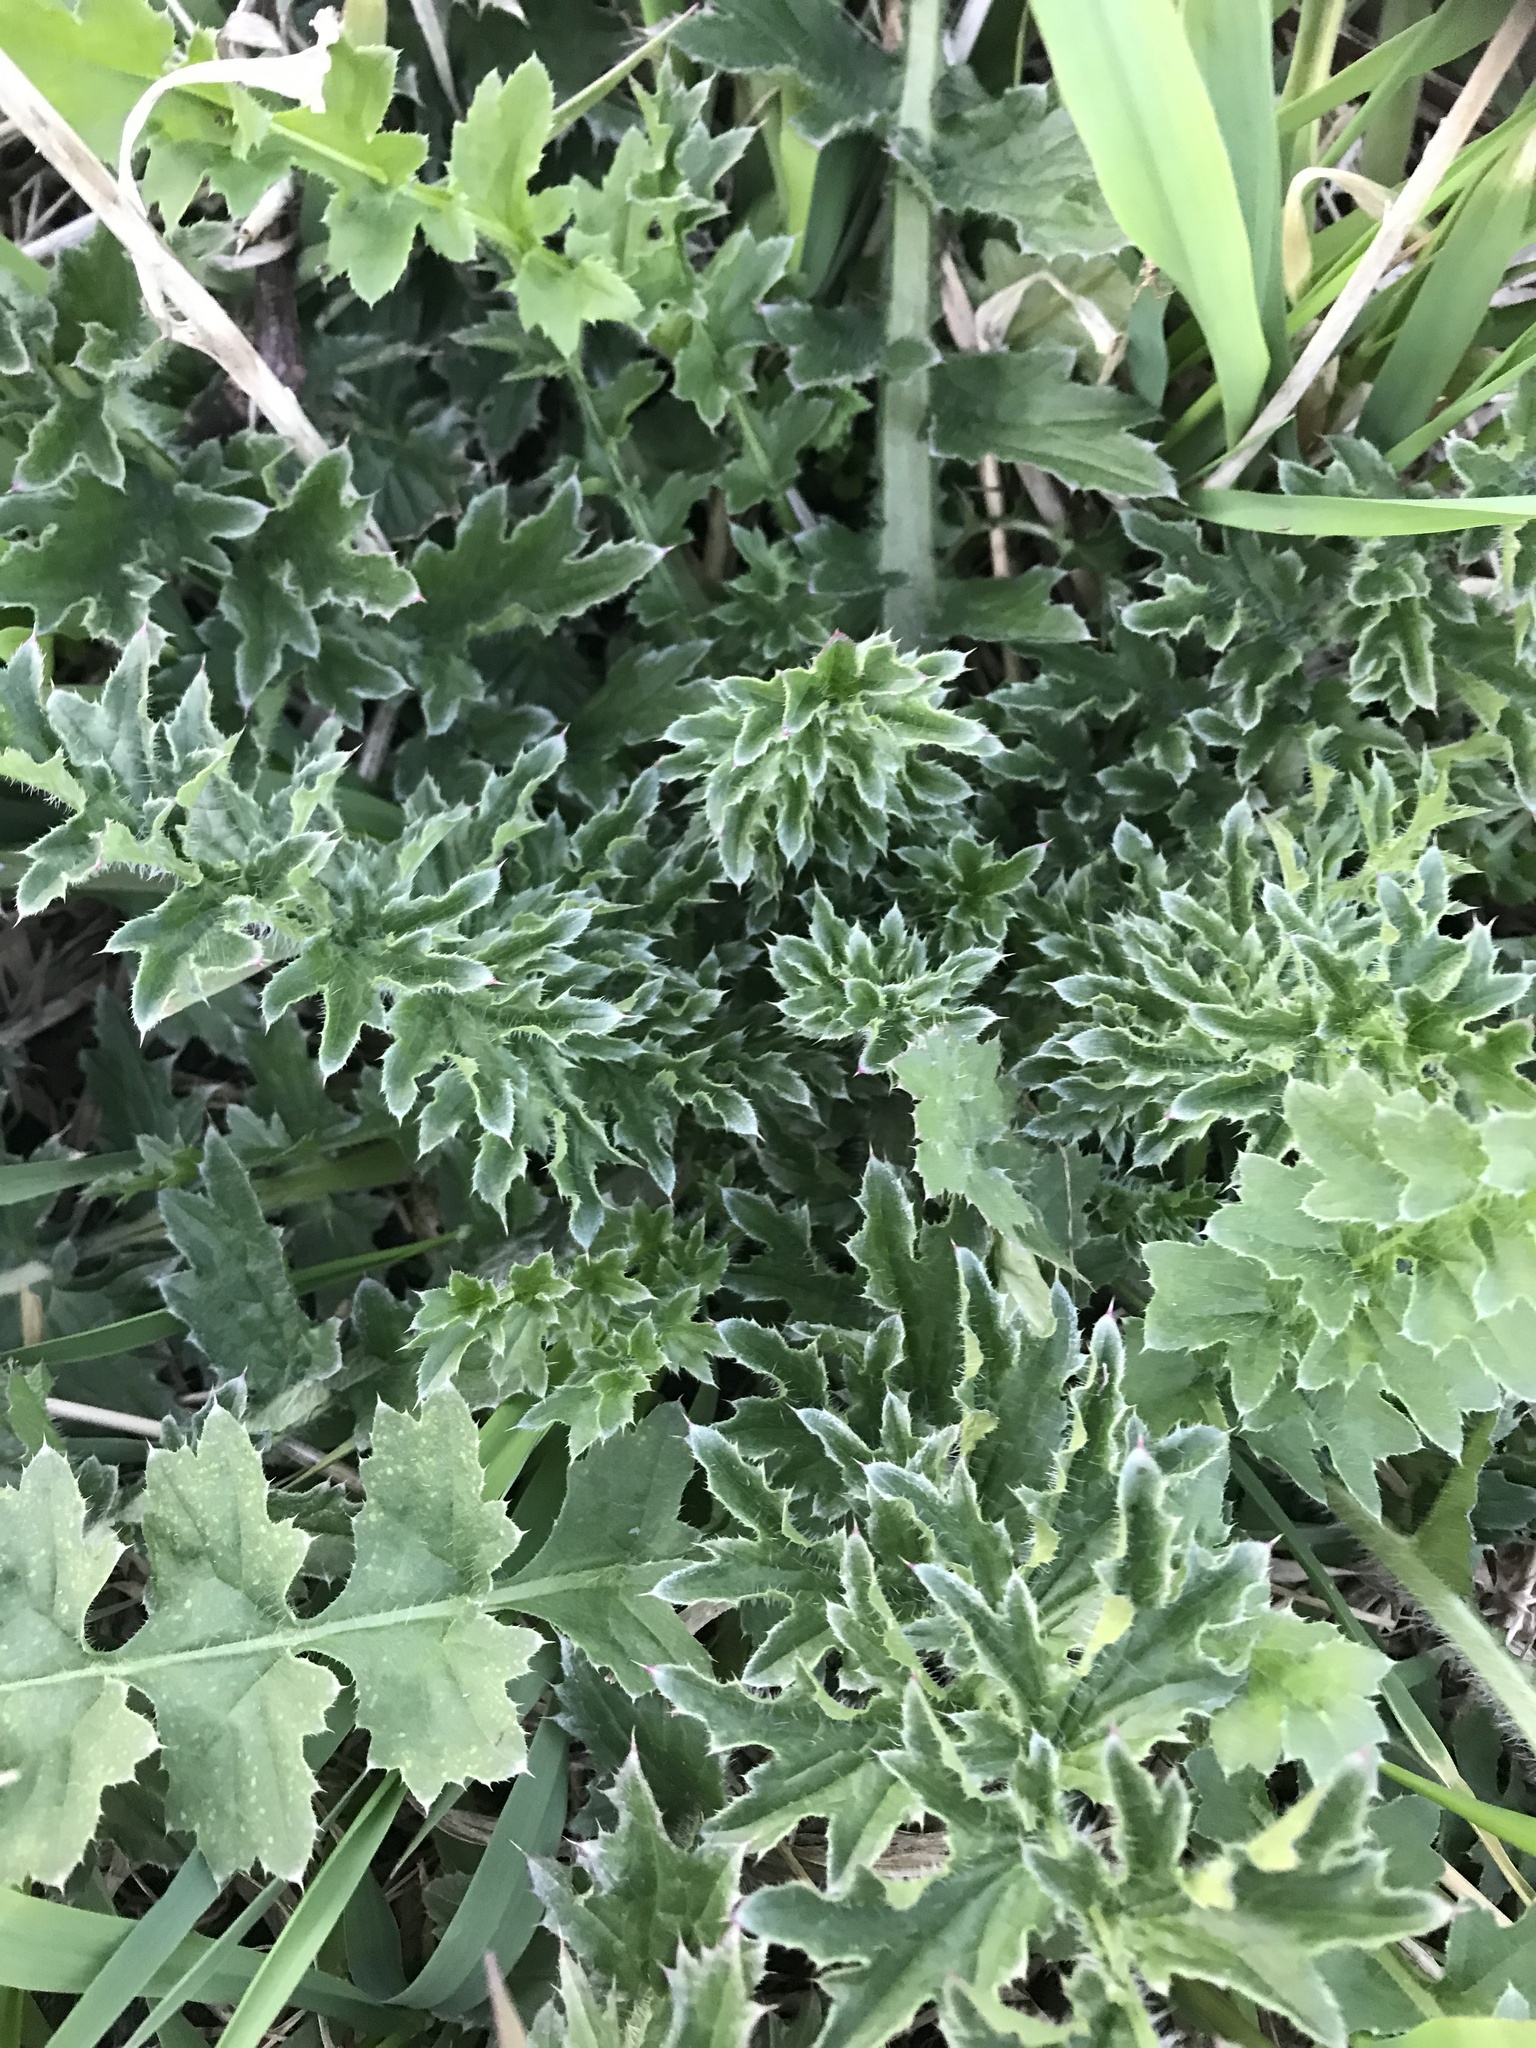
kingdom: Plantae
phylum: Tracheophyta
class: Magnoliopsida
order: Asterales
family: Asteraceae
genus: Carduus
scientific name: Carduus nutans
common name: Musk thistle
